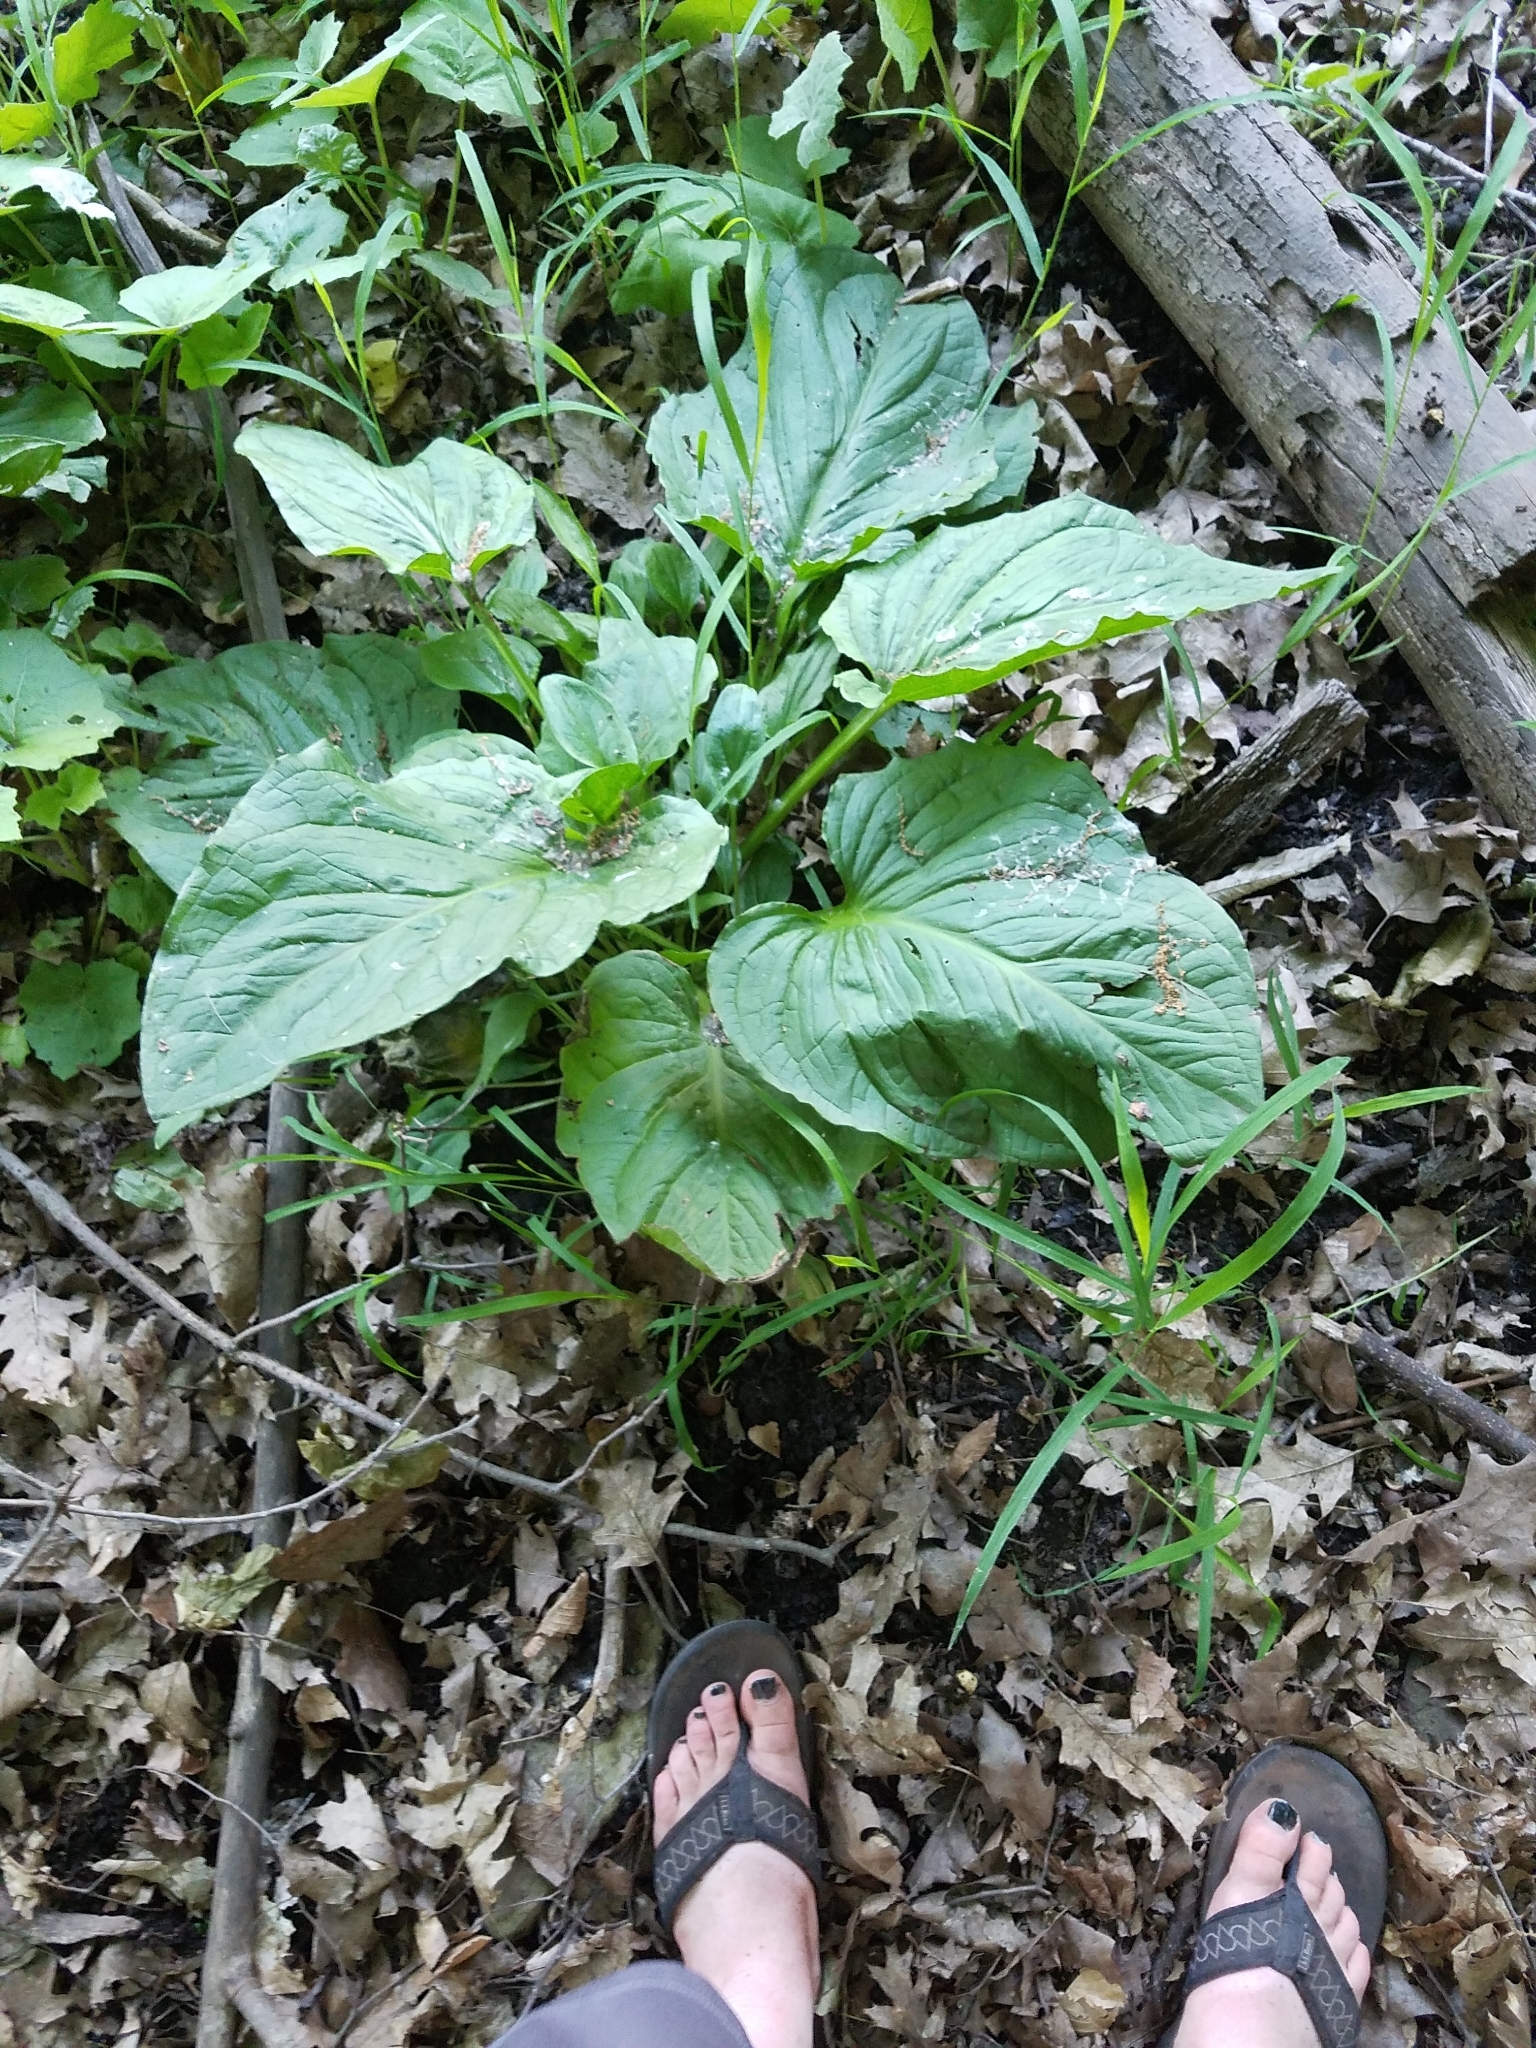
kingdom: Plantae
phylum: Tracheophyta
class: Liliopsida
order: Alismatales
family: Araceae
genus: Symplocarpus
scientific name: Symplocarpus foetidus
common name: Eastern skunk cabbage
